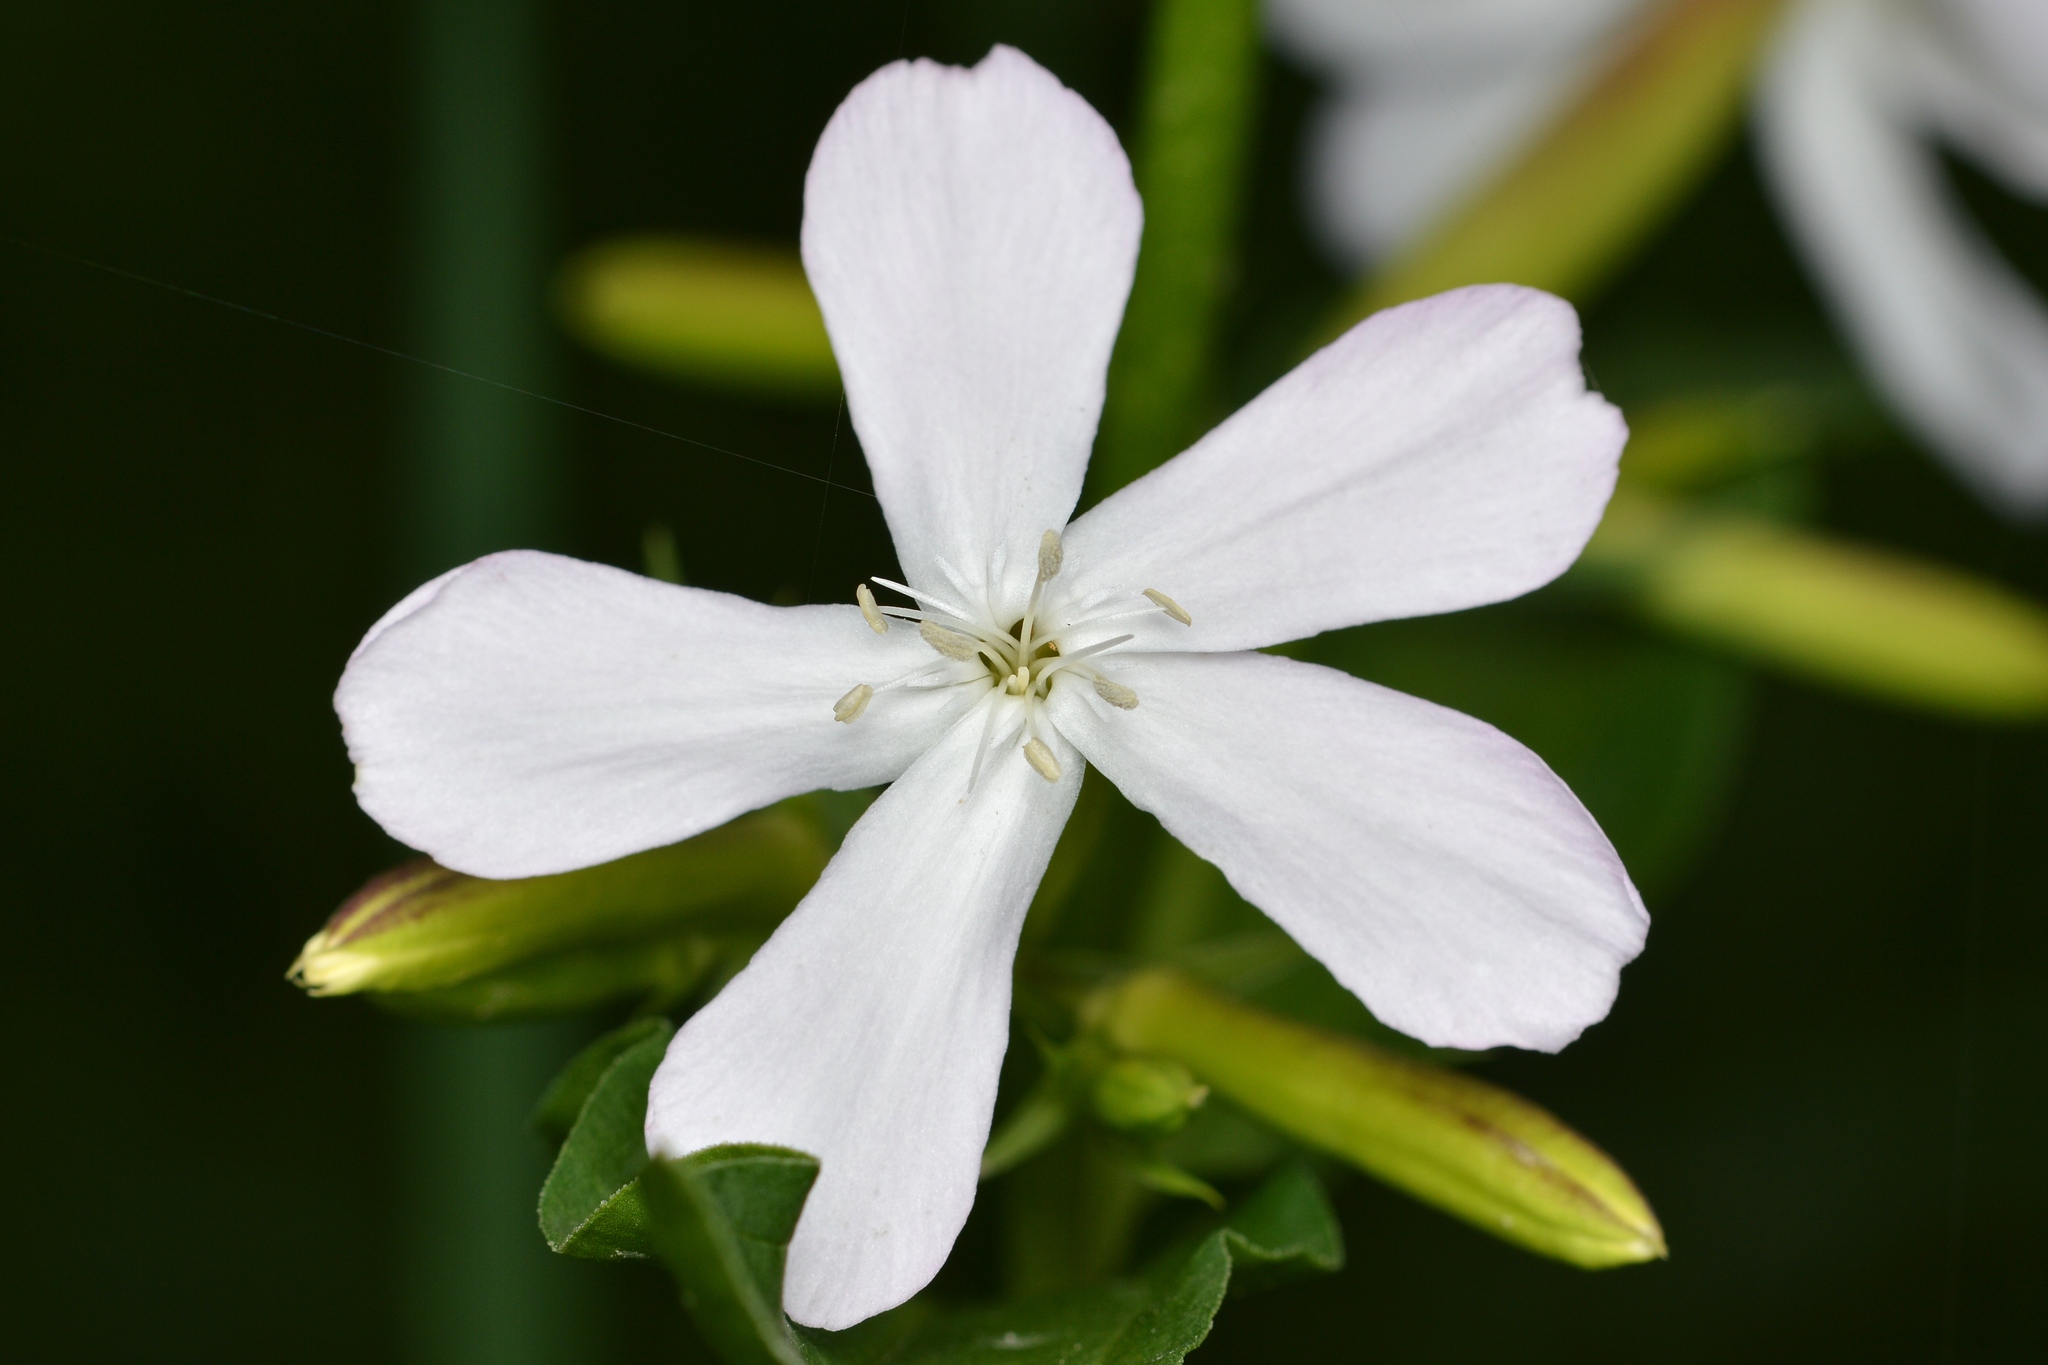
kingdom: Plantae
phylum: Tracheophyta
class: Magnoliopsida
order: Caryophyllales
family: Caryophyllaceae
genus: Saponaria
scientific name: Saponaria officinalis
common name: Soapwort
